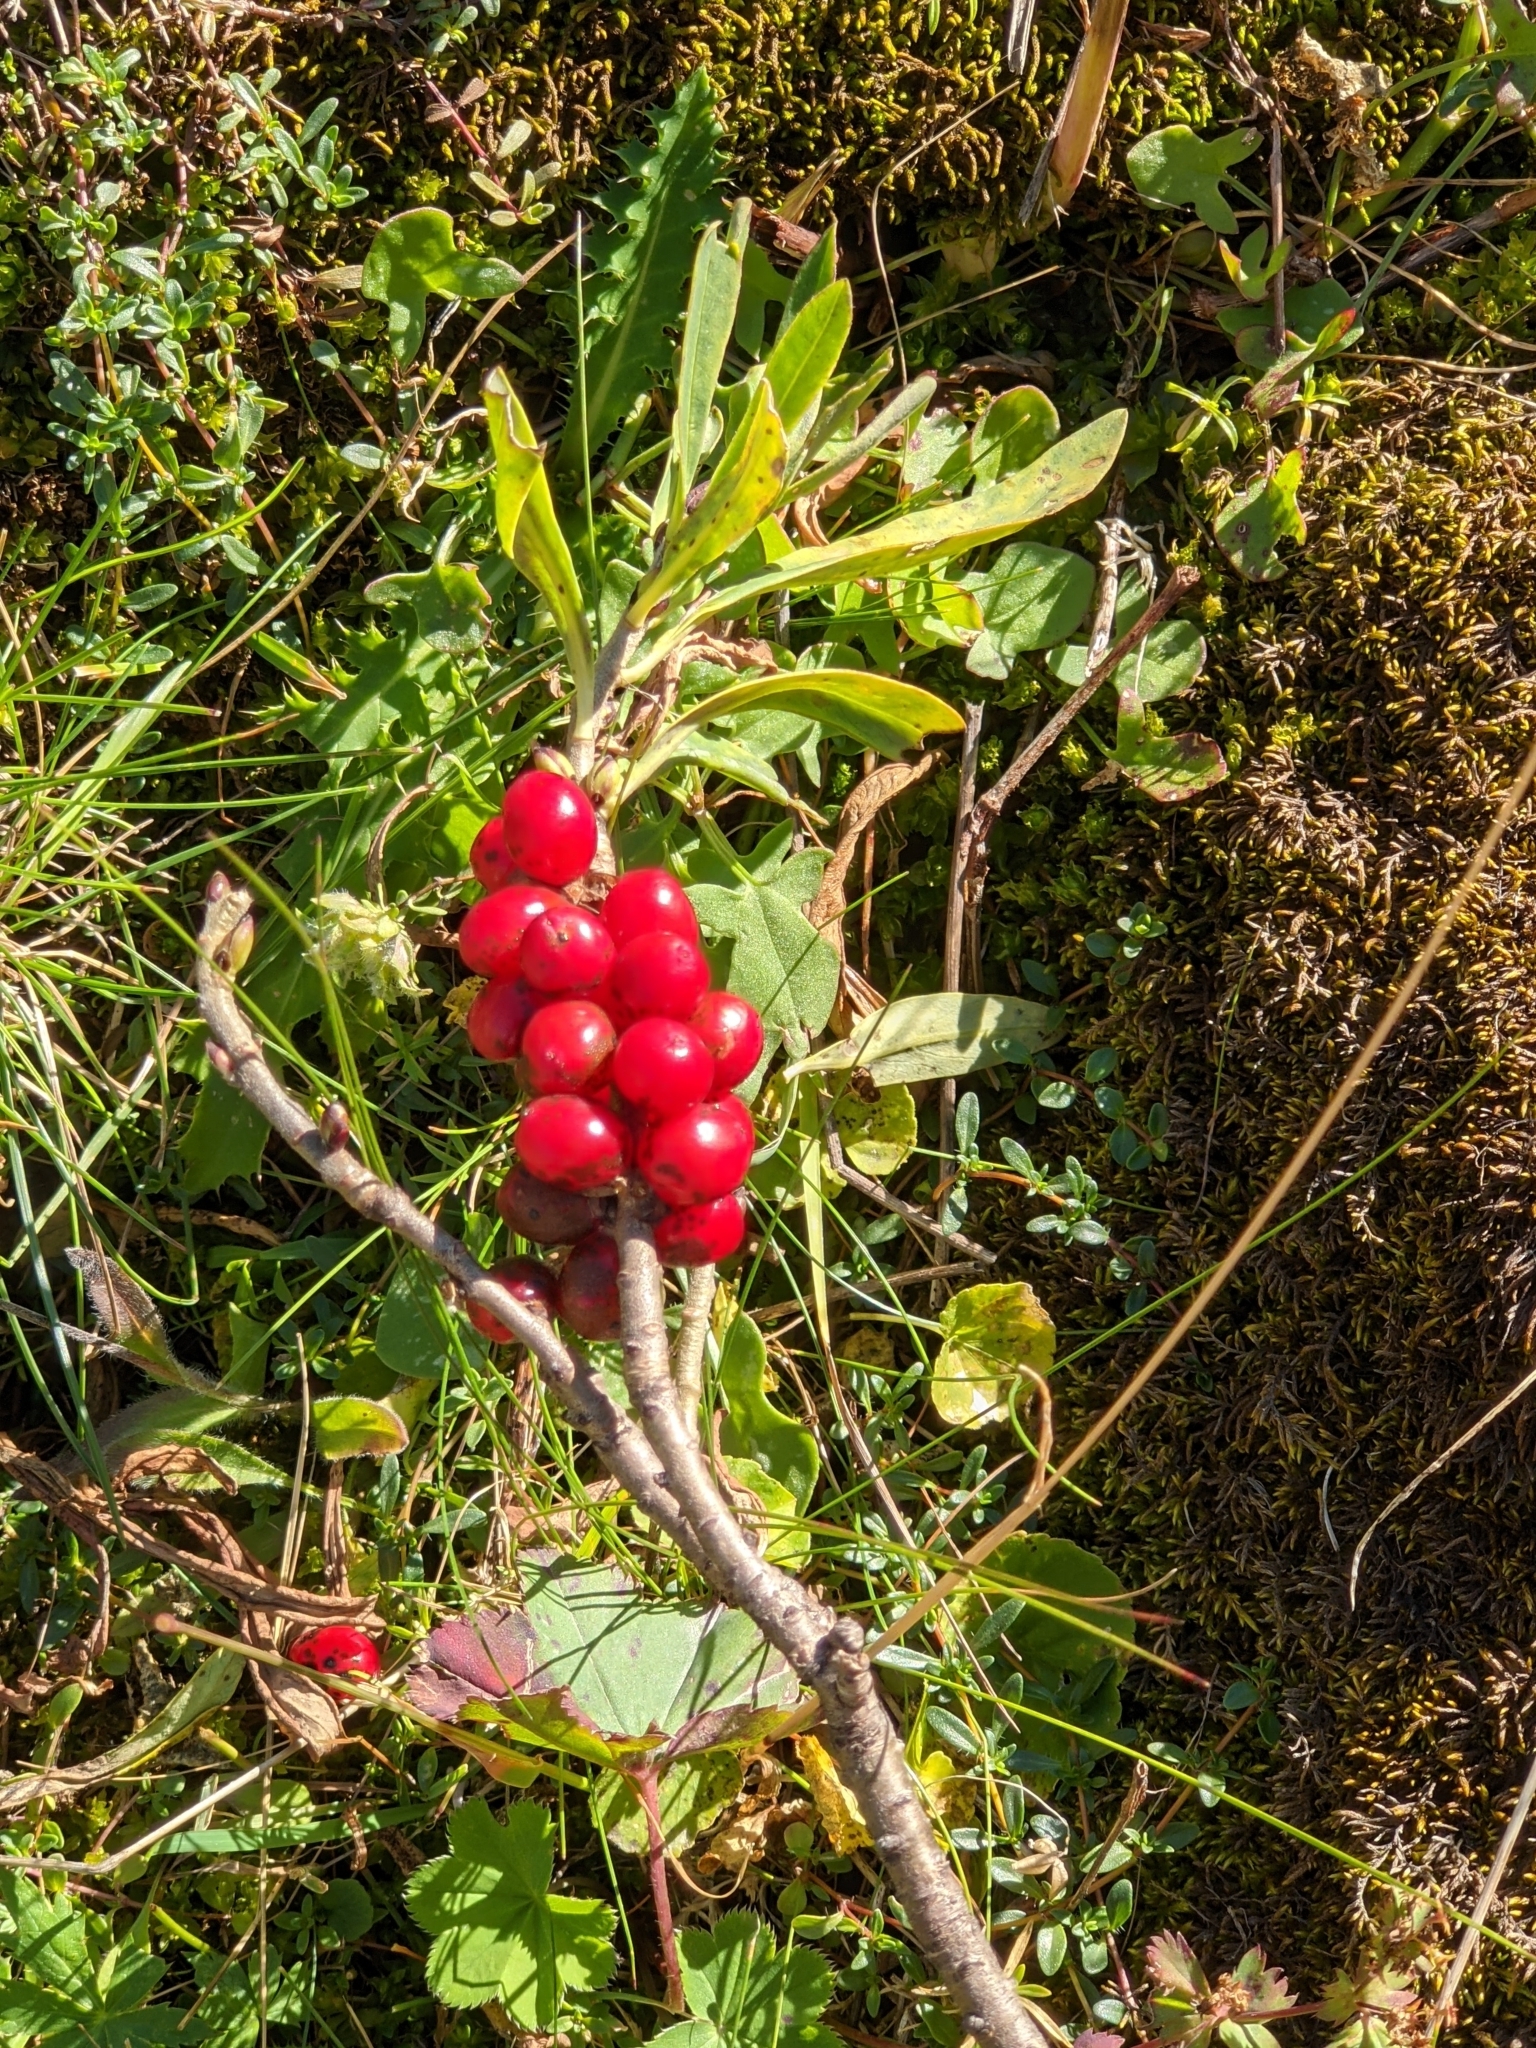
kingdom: Plantae
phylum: Tracheophyta
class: Magnoliopsida
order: Malvales
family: Thymelaeaceae
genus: Daphne
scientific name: Daphne mezereum
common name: Mezereon
